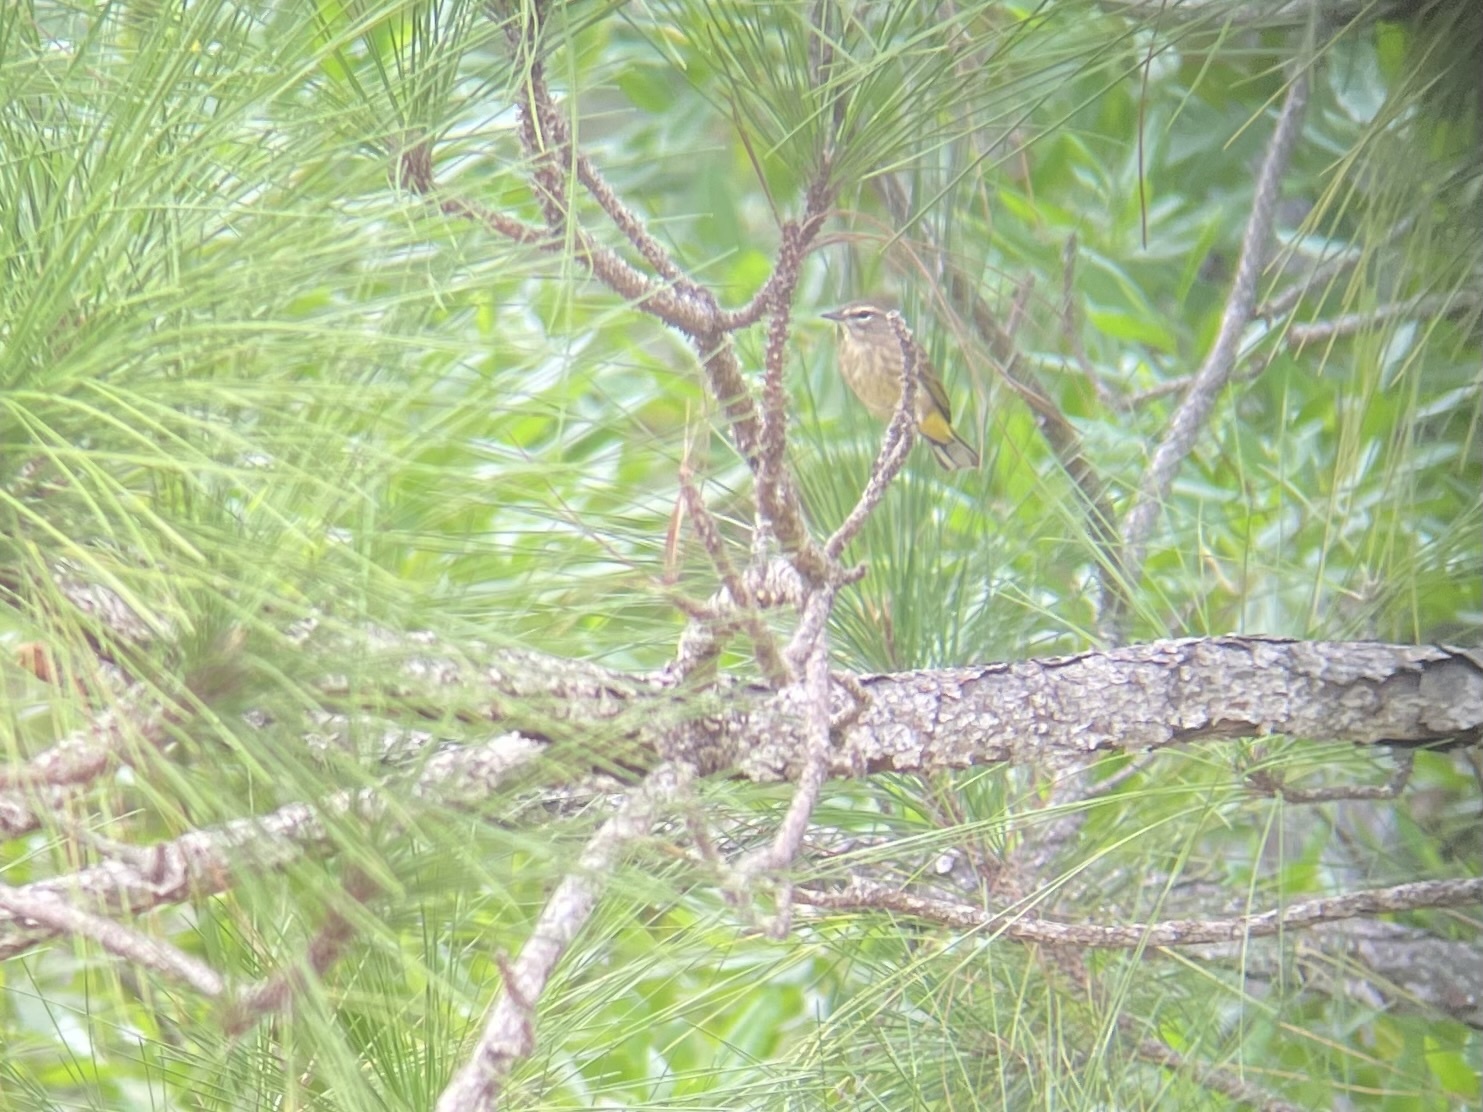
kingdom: Animalia
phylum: Chordata
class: Aves
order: Passeriformes
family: Parulidae
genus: Setophaga
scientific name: Setophaga palmarum
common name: Palm warbler
